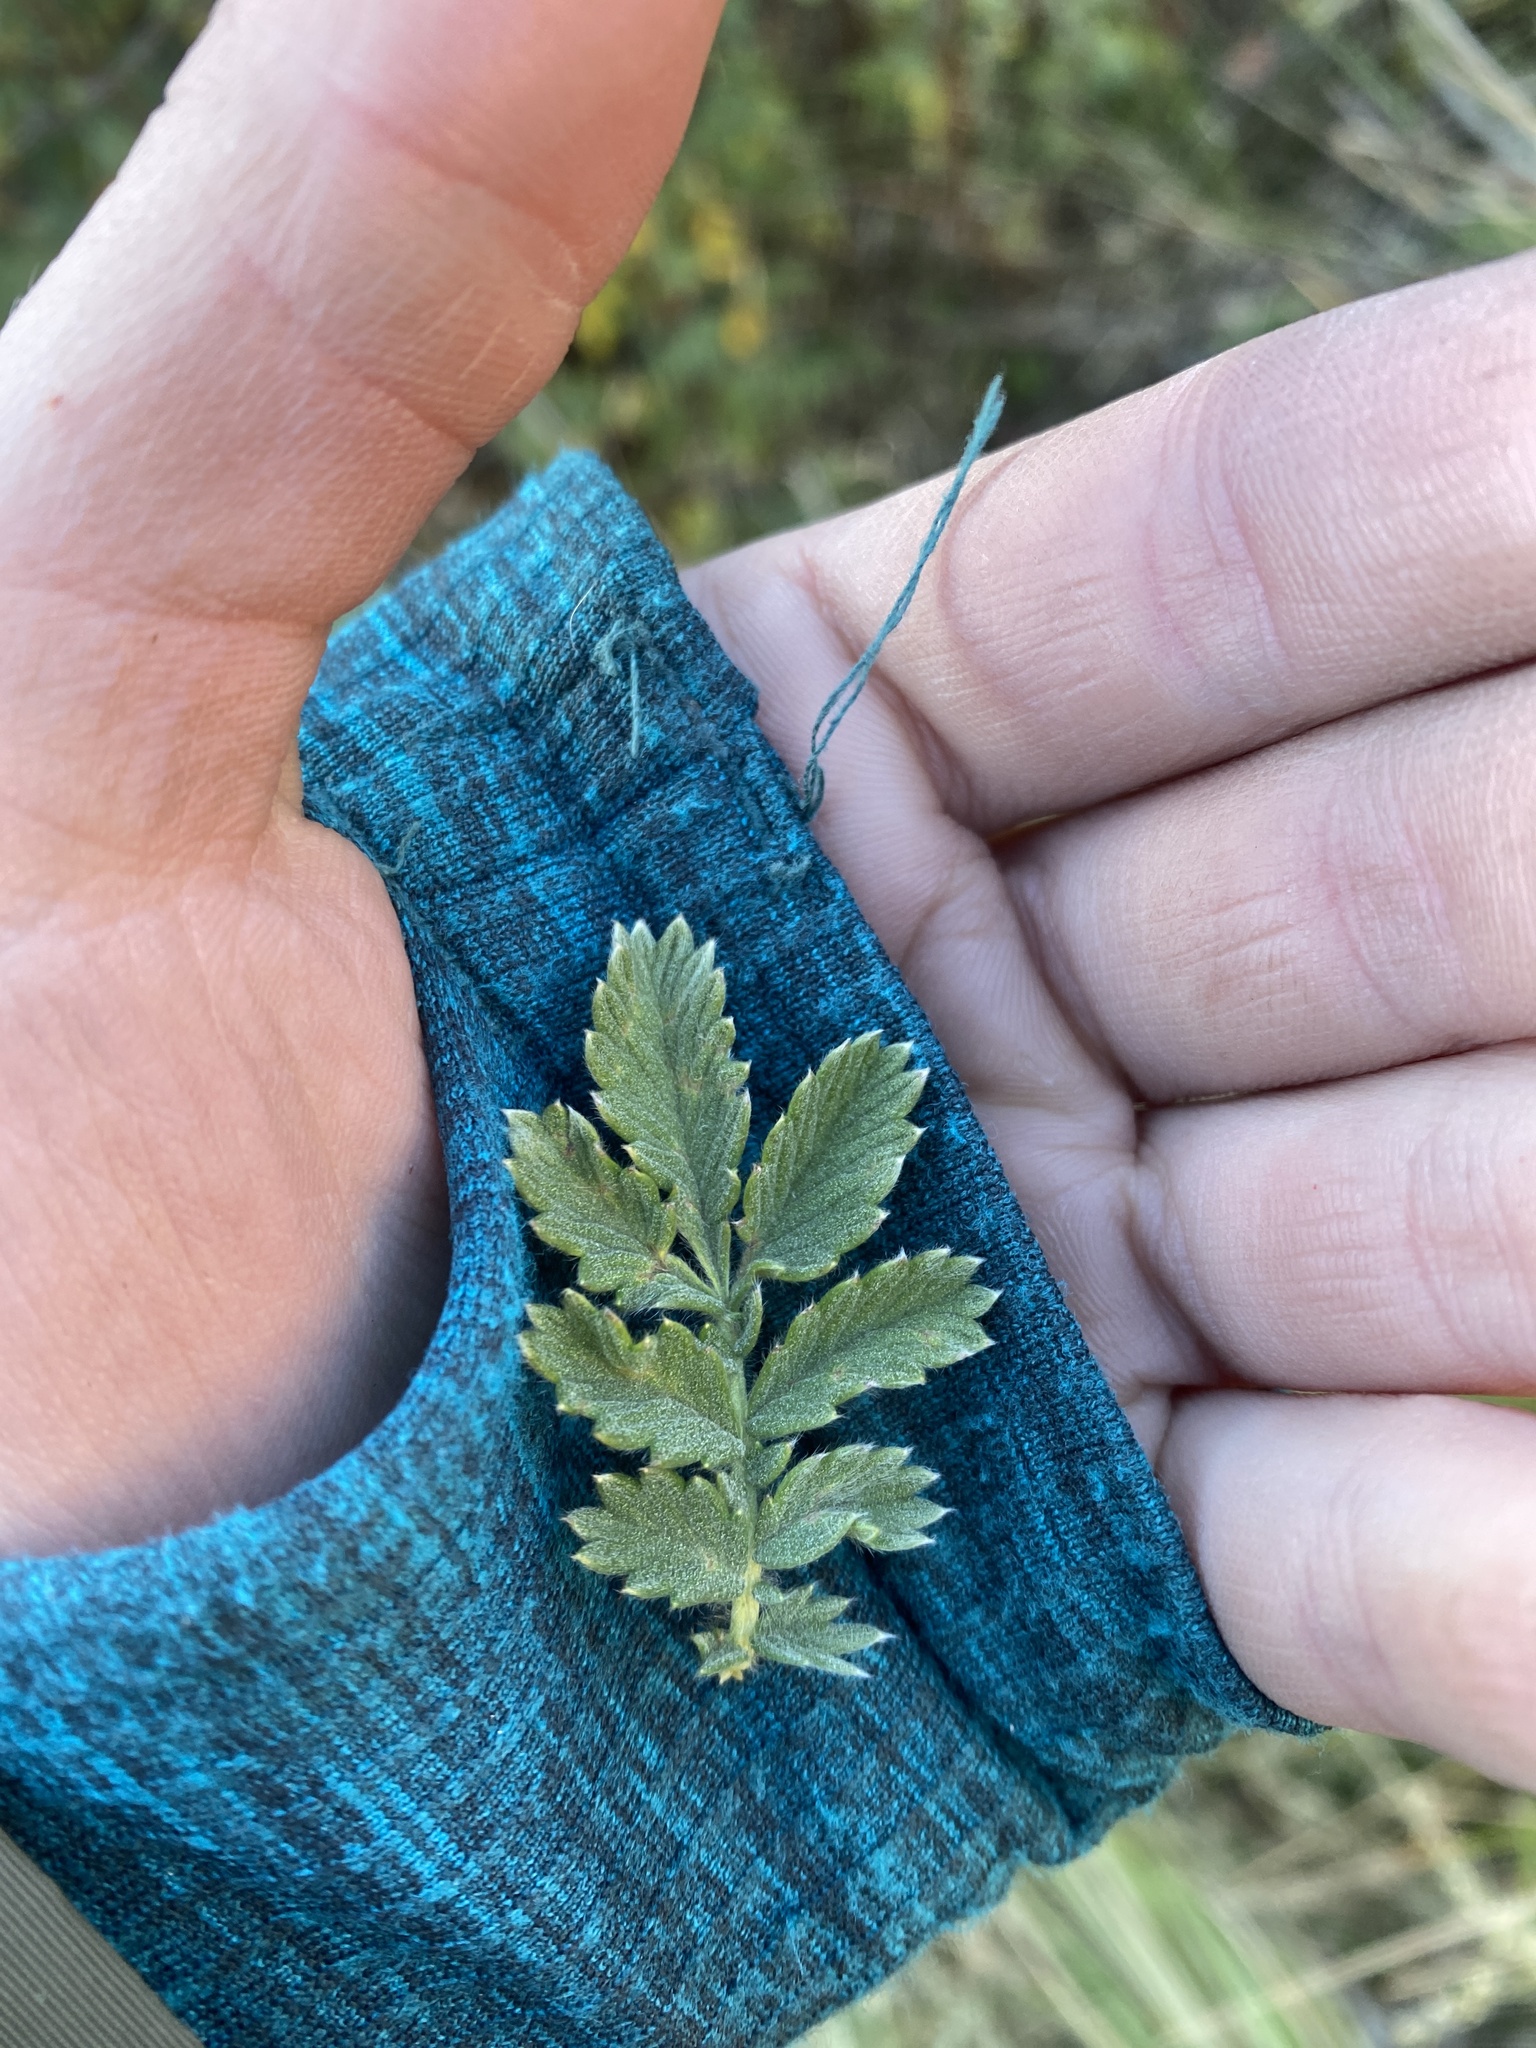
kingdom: Plantae
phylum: Tracheophyta
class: Magnoliopsida
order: Rosales
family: Rosaceae
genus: Leucosidea
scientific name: Leucosidea sericea
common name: Oldwood
